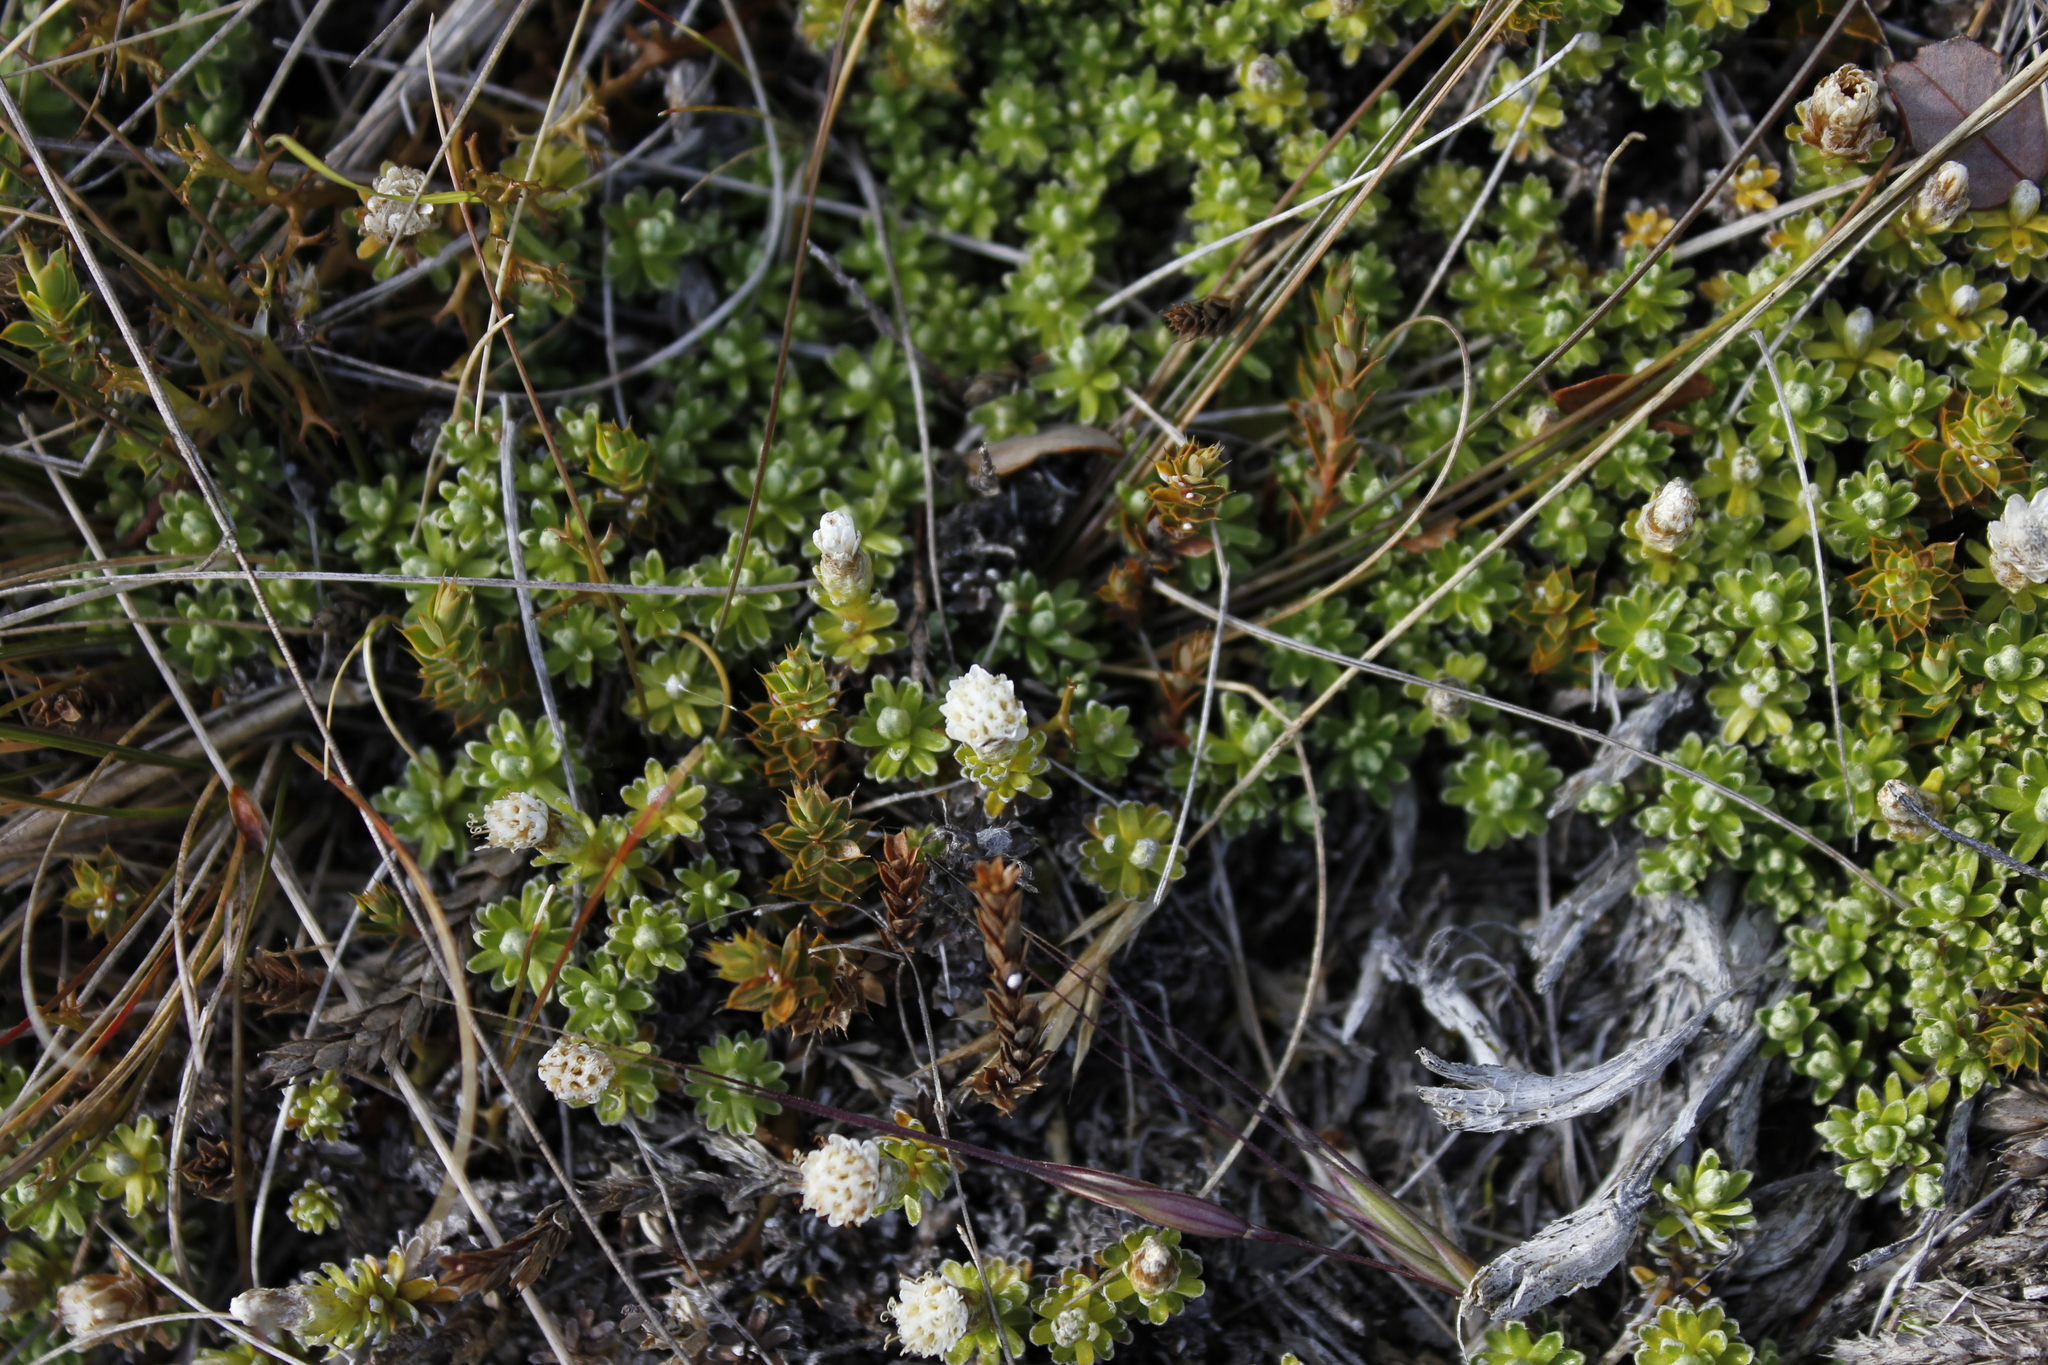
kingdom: Plantae
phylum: Tracheophyta
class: Magnoliopsida
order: Asterales
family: Asteraceae
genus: Raoulia
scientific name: Raoulia subsericea
